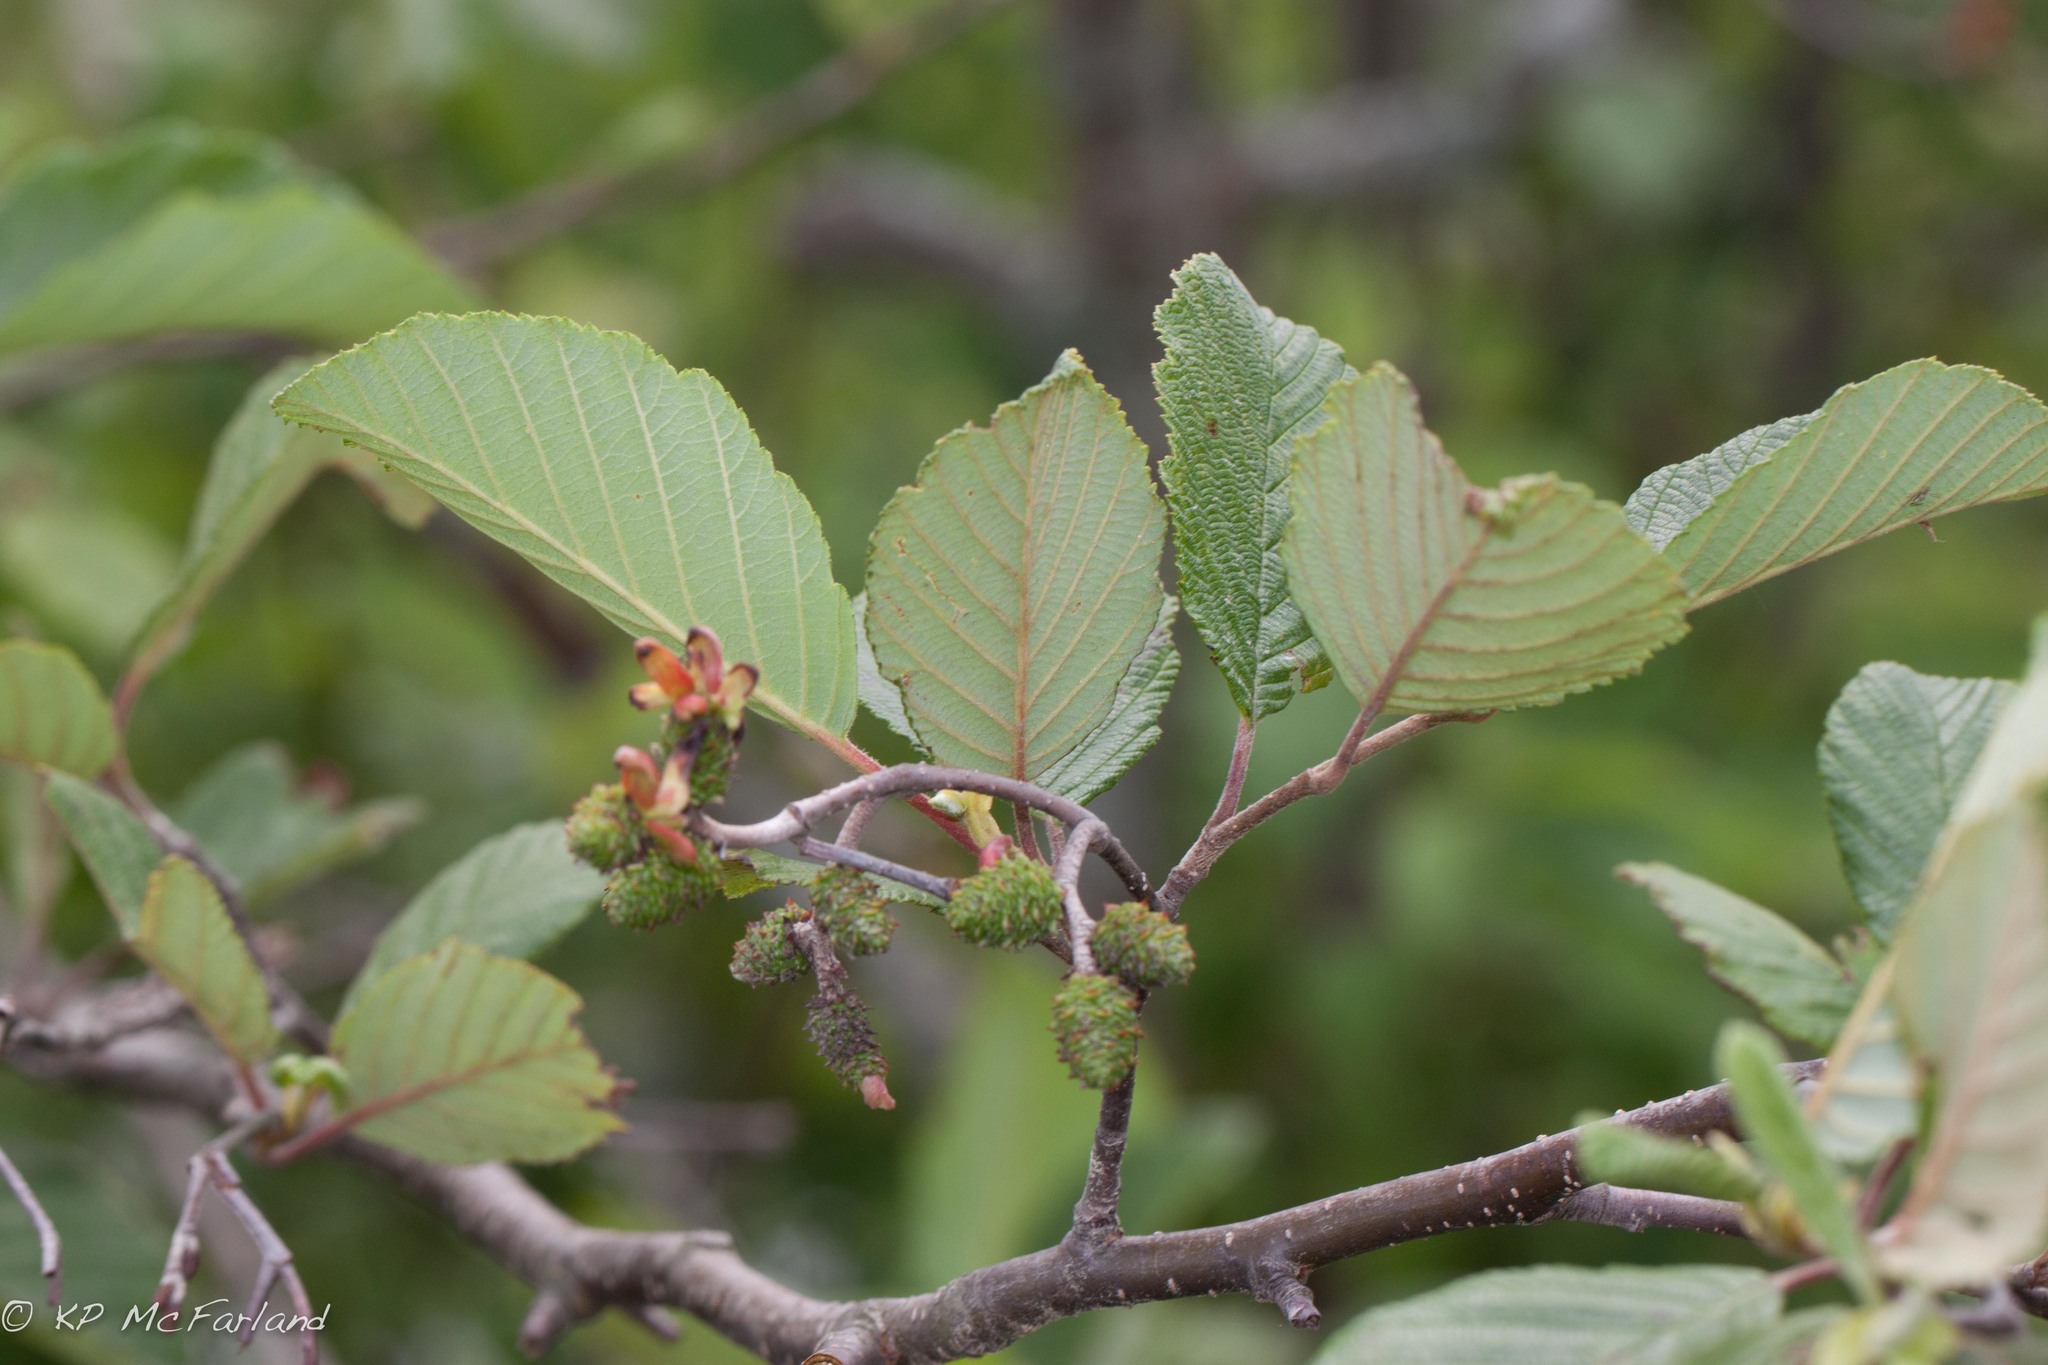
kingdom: Plantae
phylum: Tracheophyta
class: Magnoliopsida
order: Fagales
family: Betulaceae
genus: Alnus
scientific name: Alnus incana
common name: Grey alder
